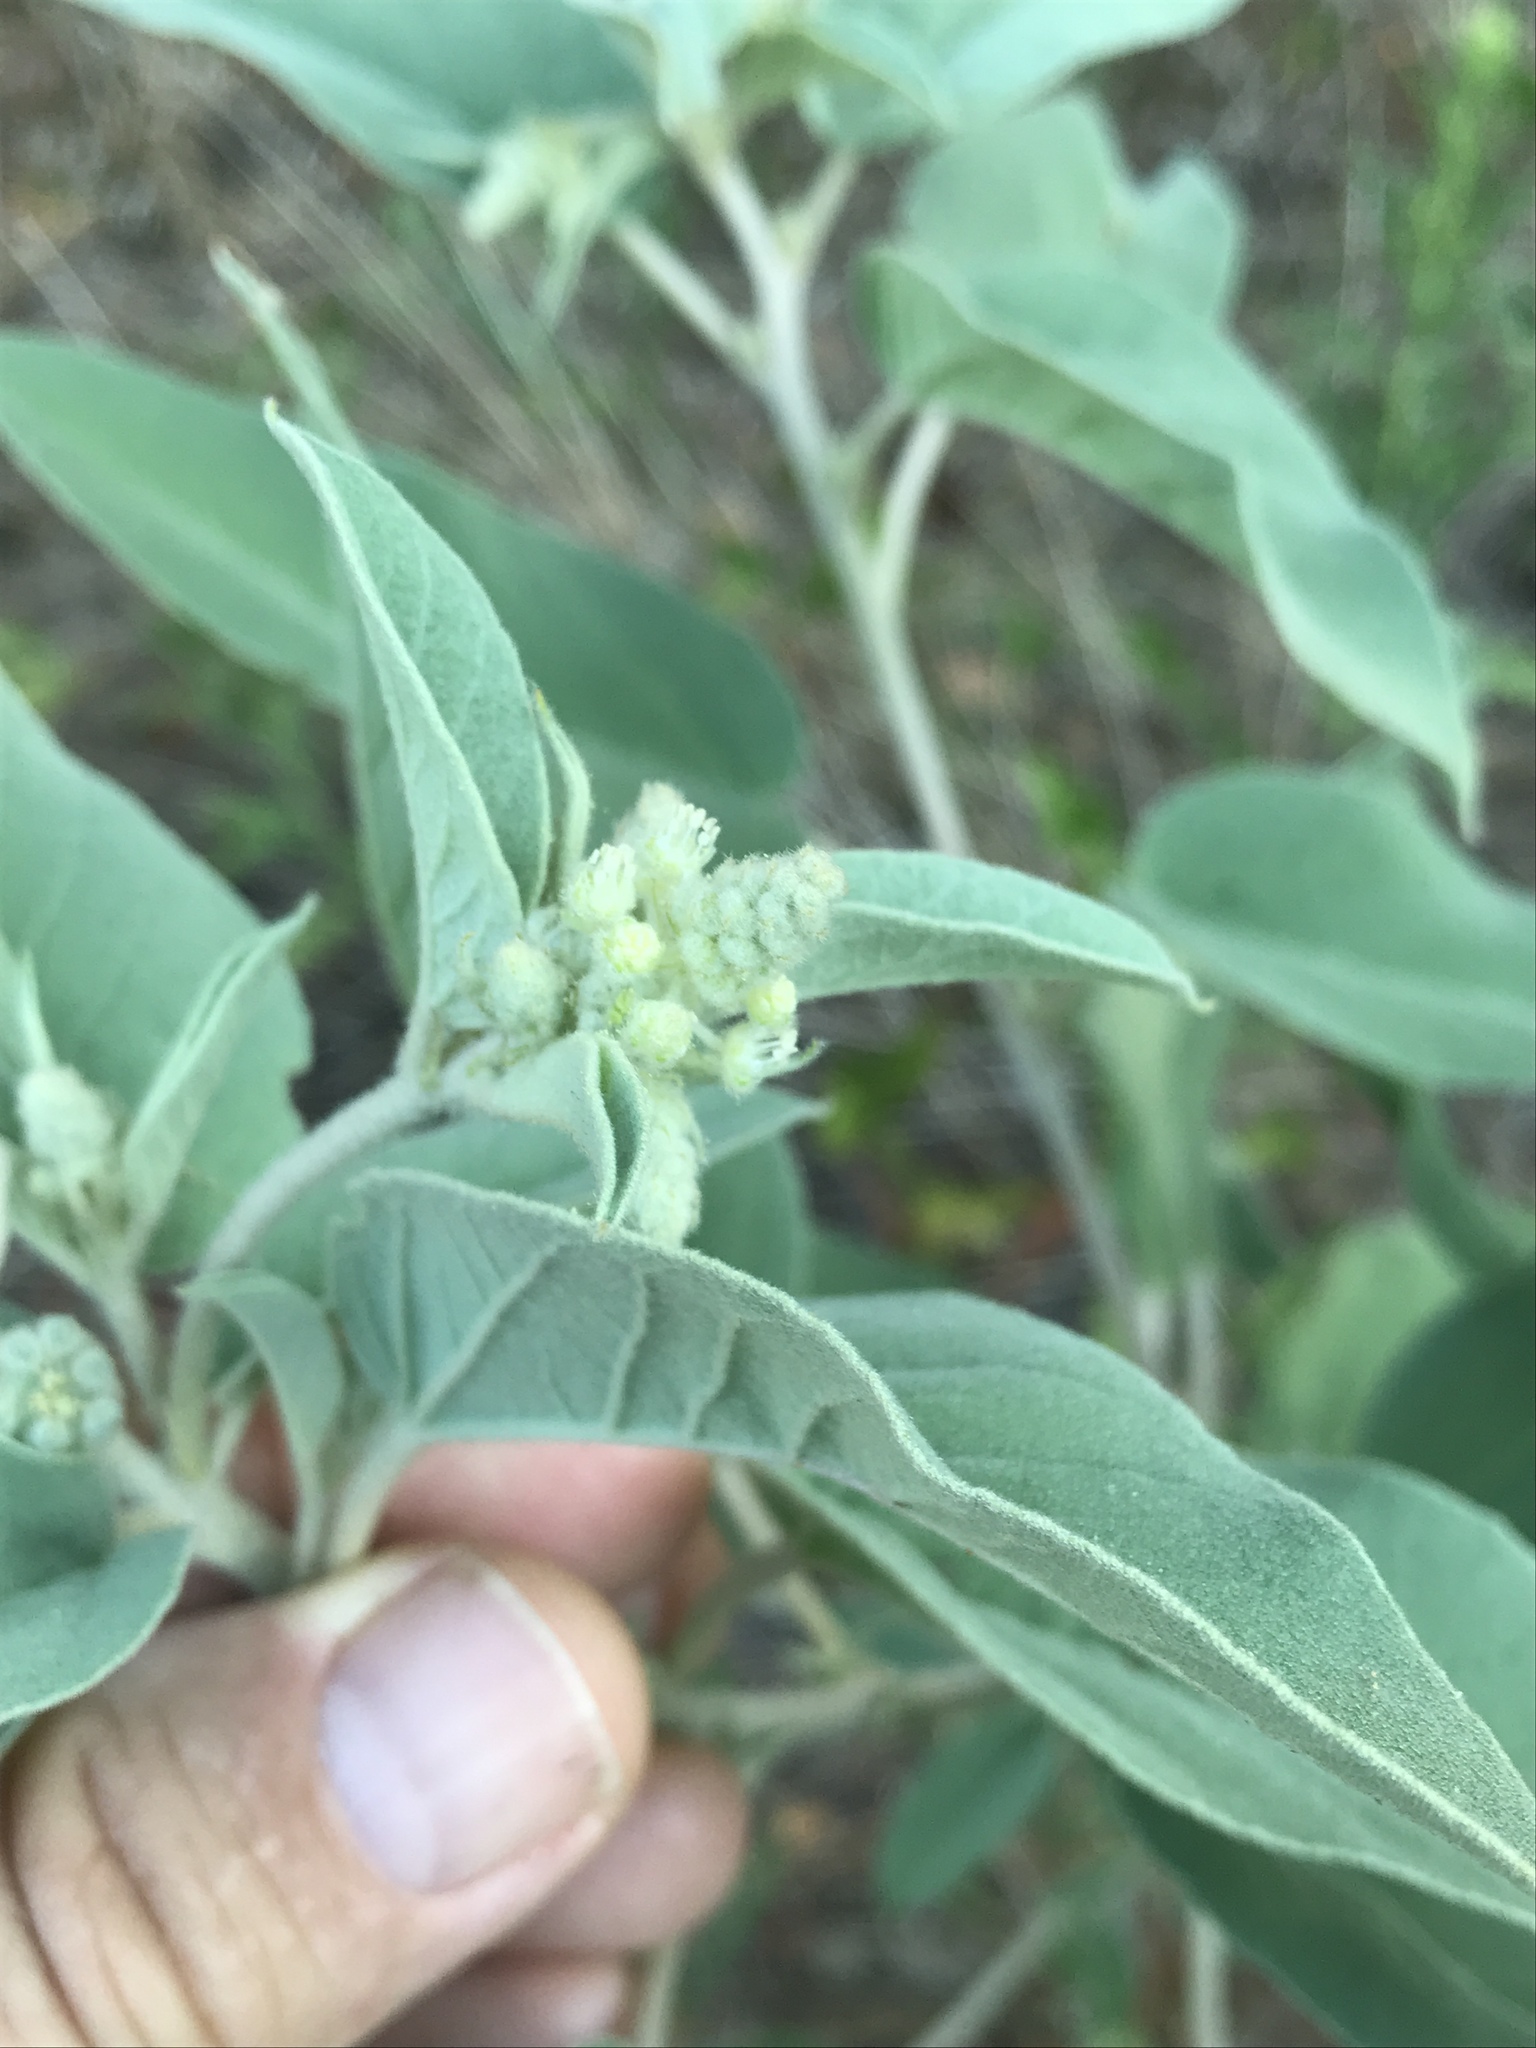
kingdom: Plantae
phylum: Tracheophyta
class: Magnoliopsida
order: Malpighiales
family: Euphorbiaceae
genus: Croton
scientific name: Croton lindheimeri
